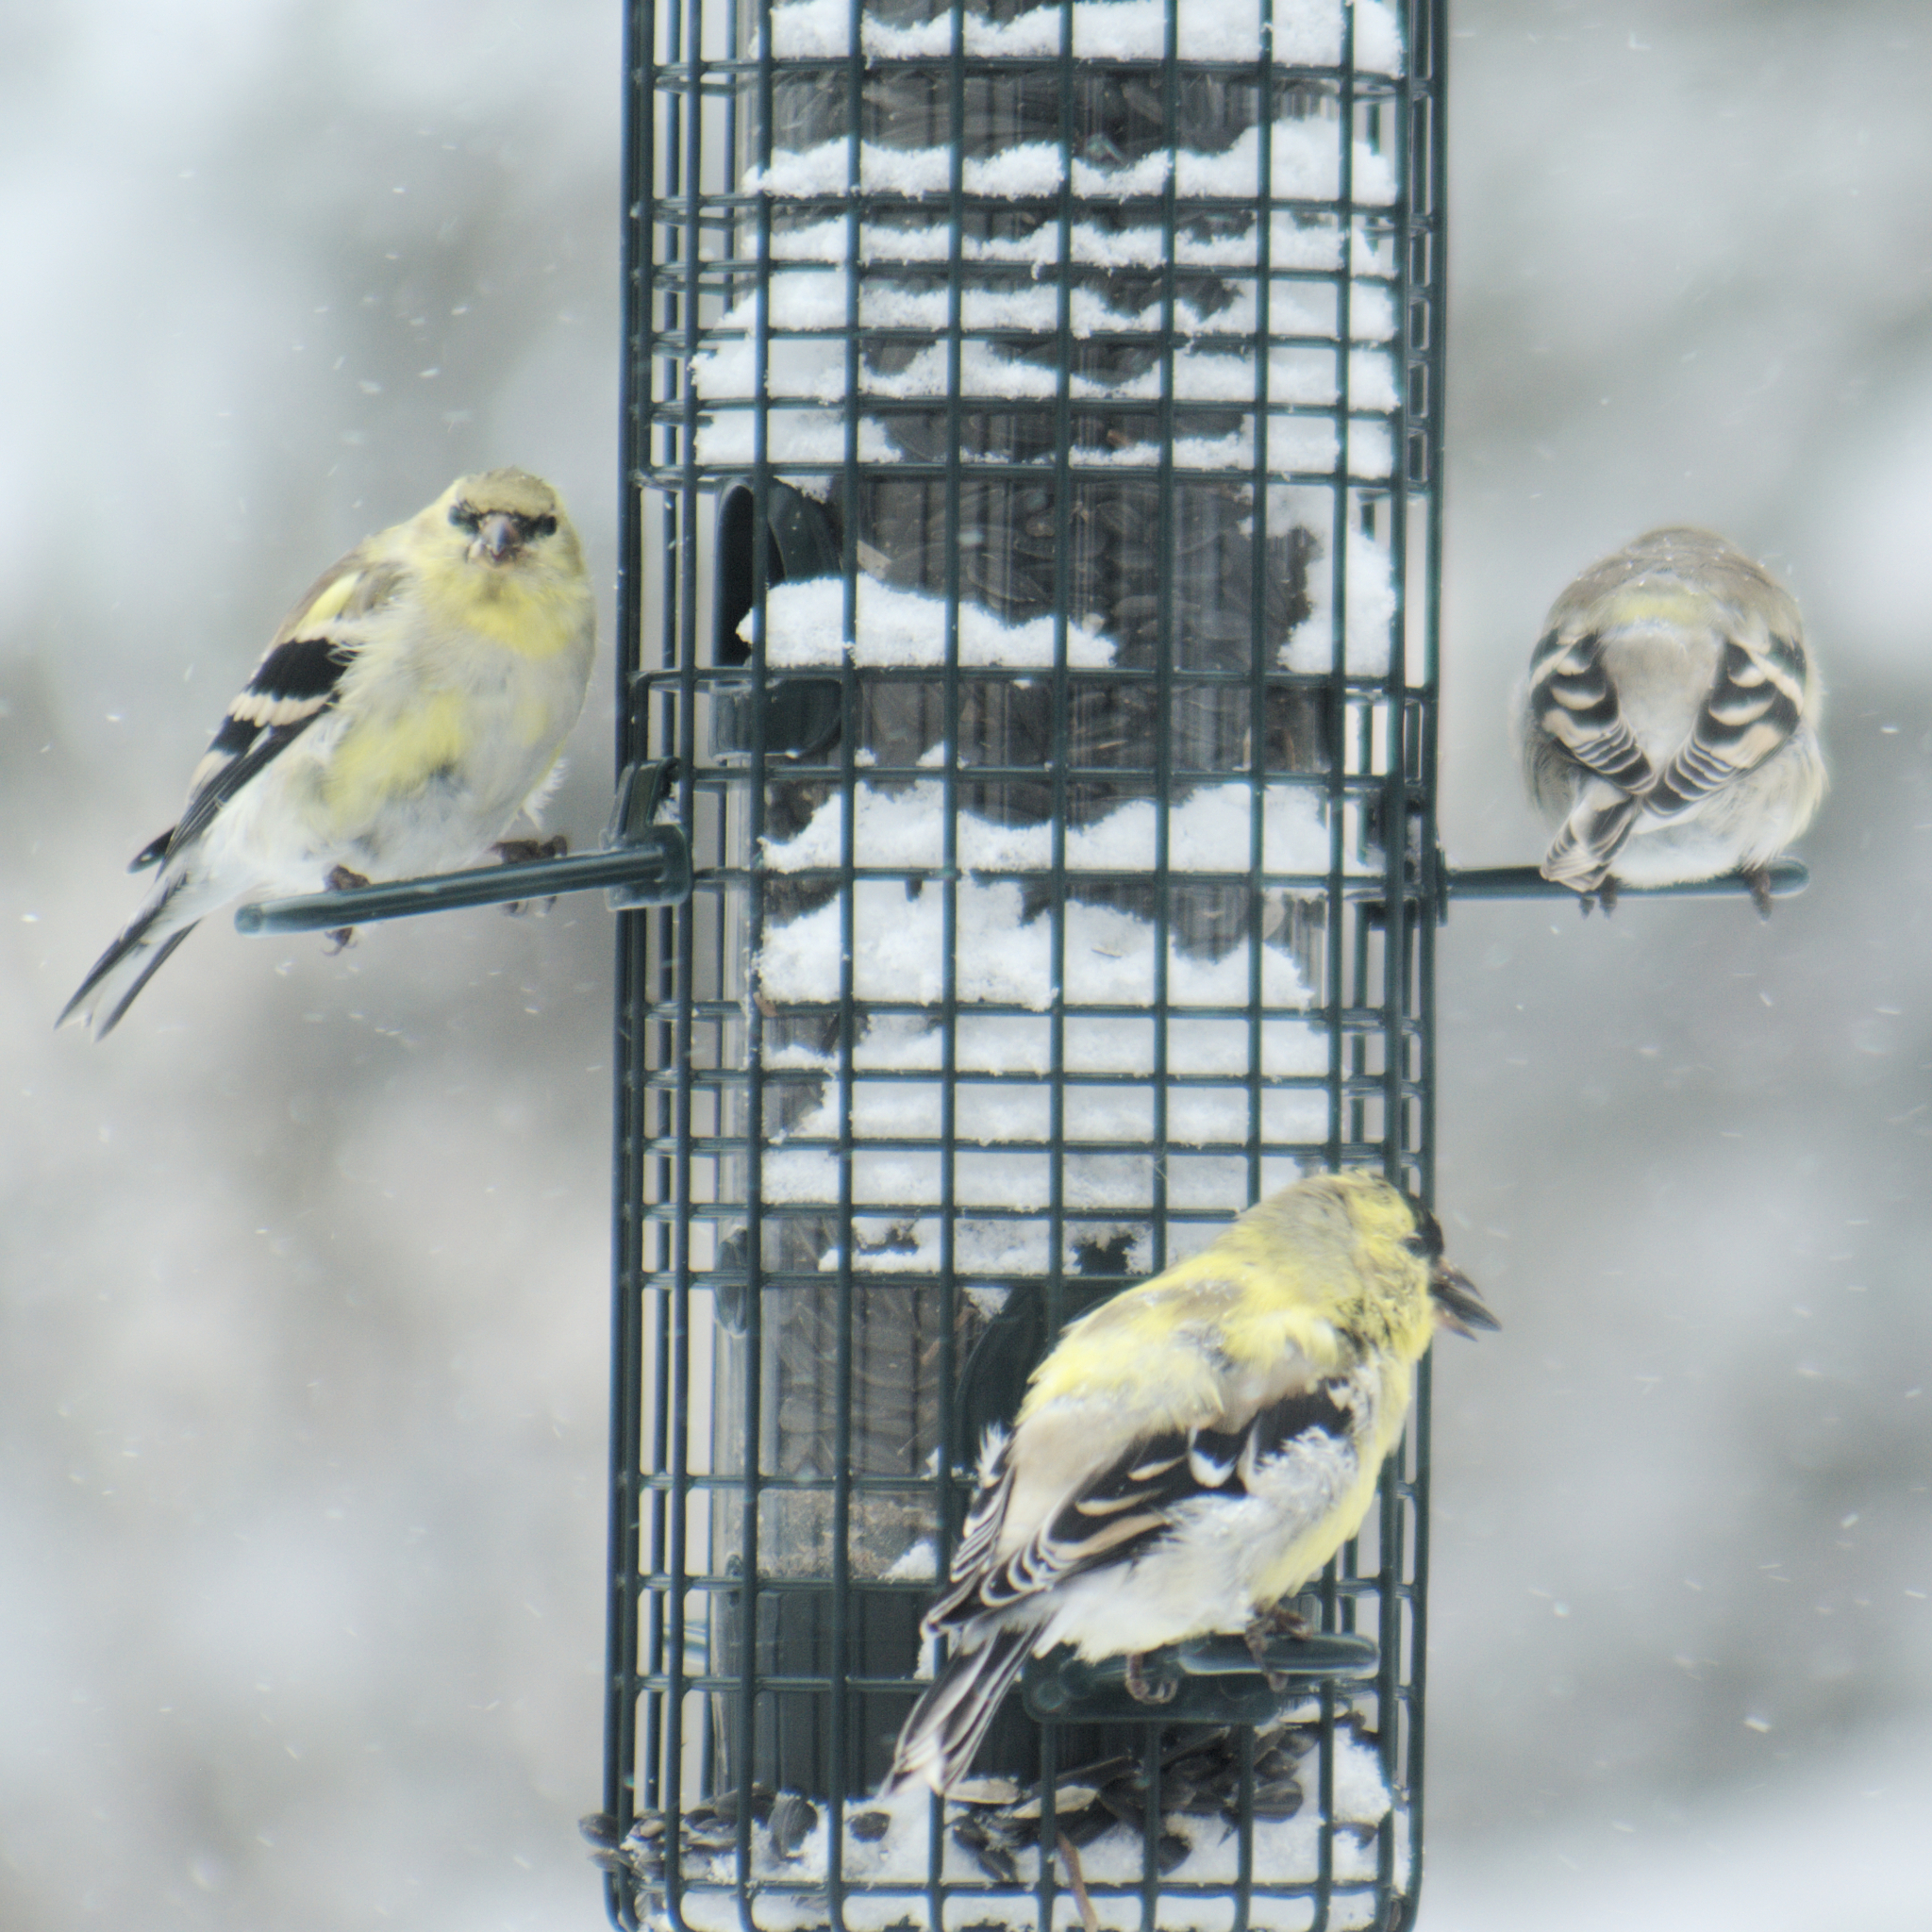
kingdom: Animalia
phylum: Chordata
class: Aves
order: Passeriformes
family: Fringillidae
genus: Spinus
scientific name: Spinus tristis
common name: American goldfinch
